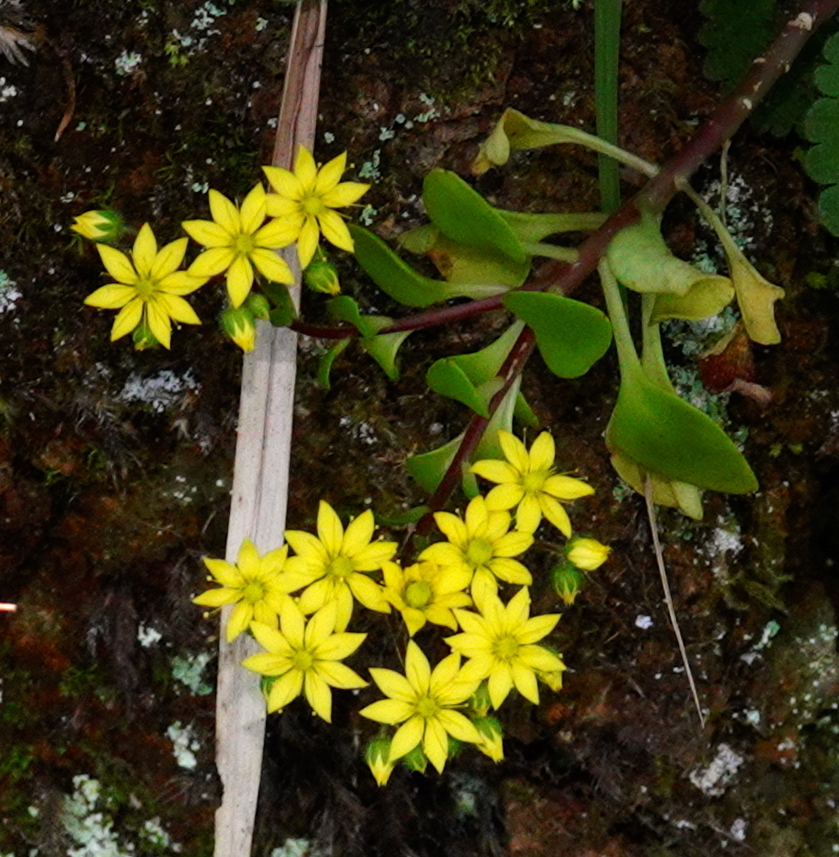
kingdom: Plantae
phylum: Tracheophyta
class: Magnoliopsida
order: Saxifragales
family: Crassulaceae
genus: Aichryson
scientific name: Aichryson divaricatum
